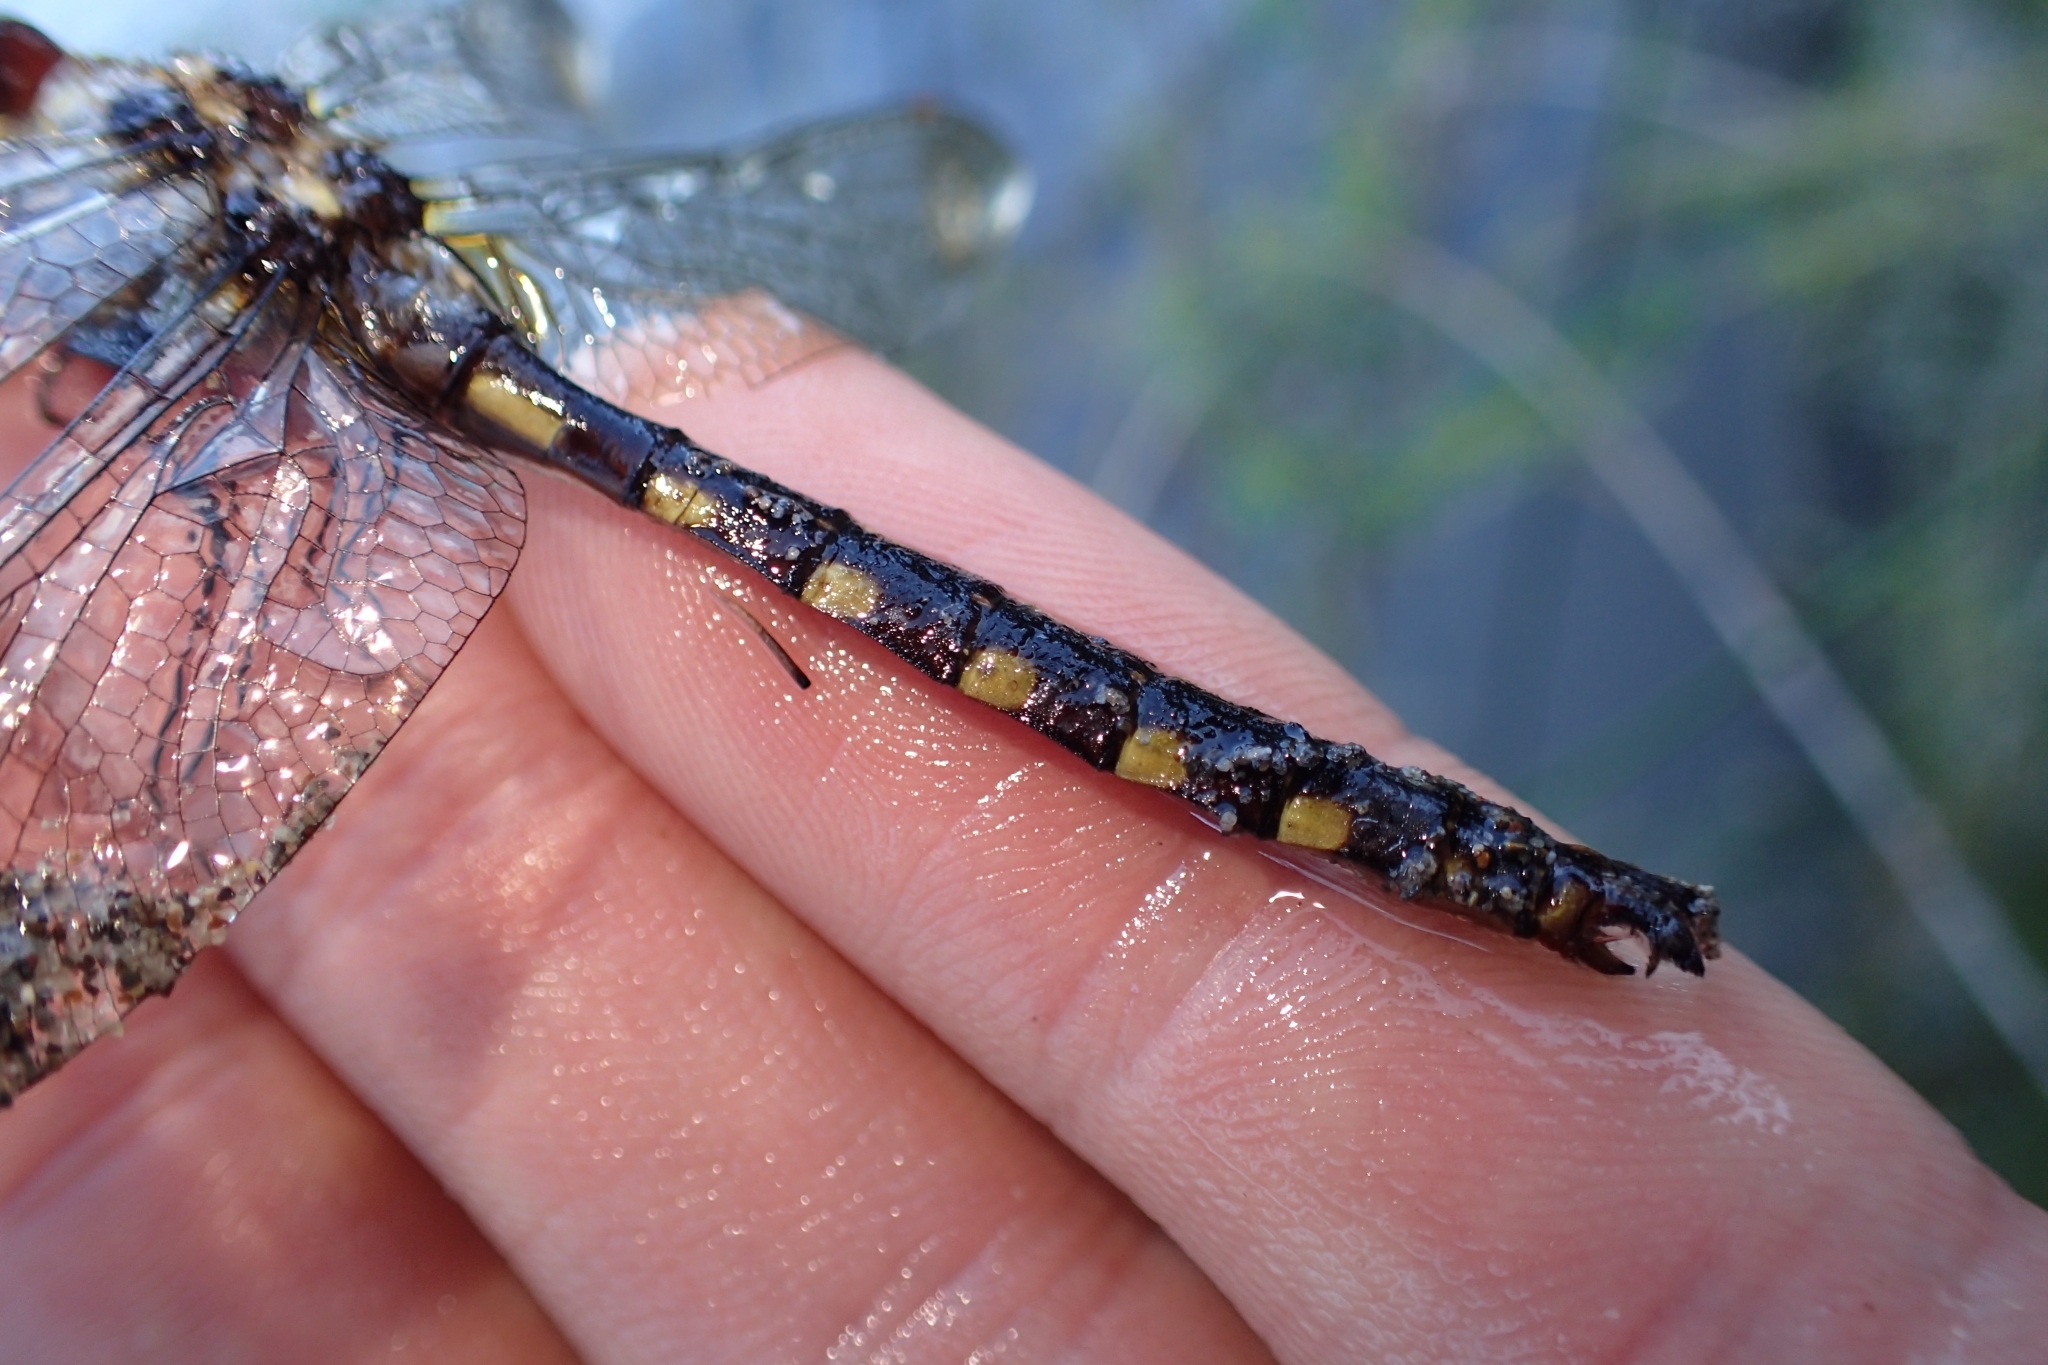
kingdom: Animalia
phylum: Arthropoda
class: Insecta
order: Odonata
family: Corduliidae
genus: Procordulia
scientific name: Procordulia grayi
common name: Yellow spotted dragonfly
